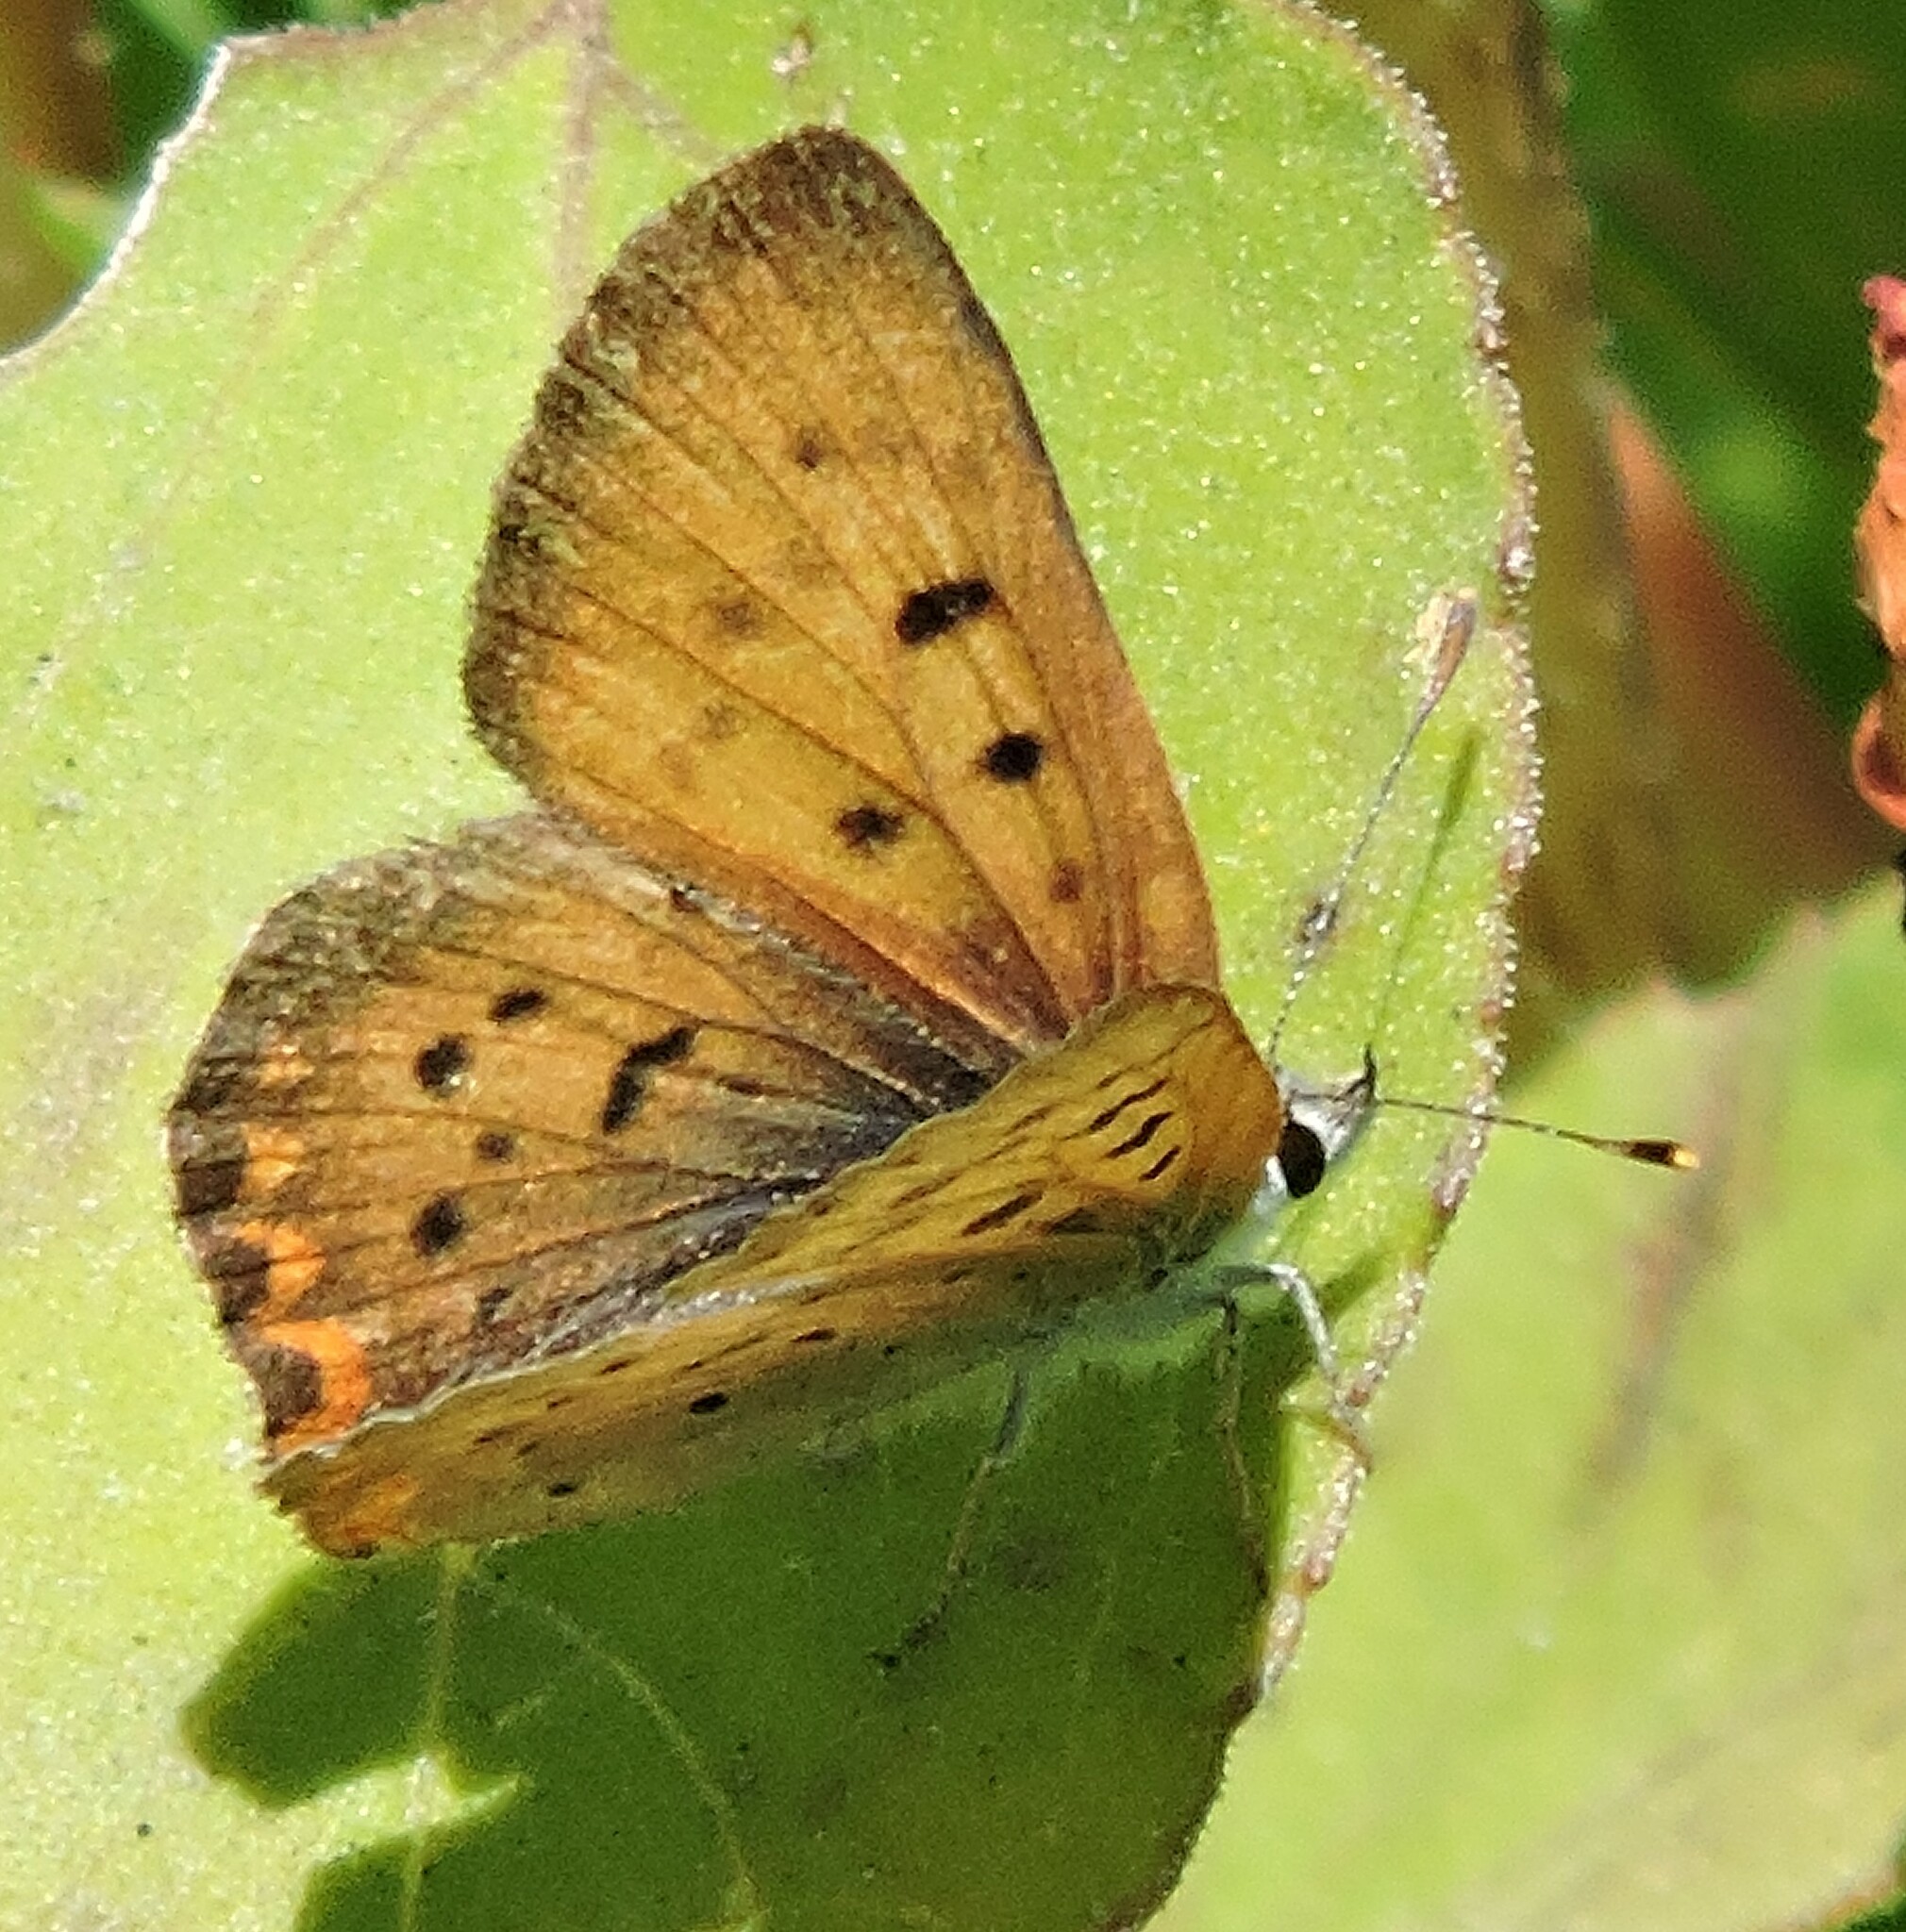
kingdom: Animalia
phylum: Arthropoda
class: Insecta
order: Lepidoptera
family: Lycaenidae
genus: Tharsalea
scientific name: Tharsalea helloides
